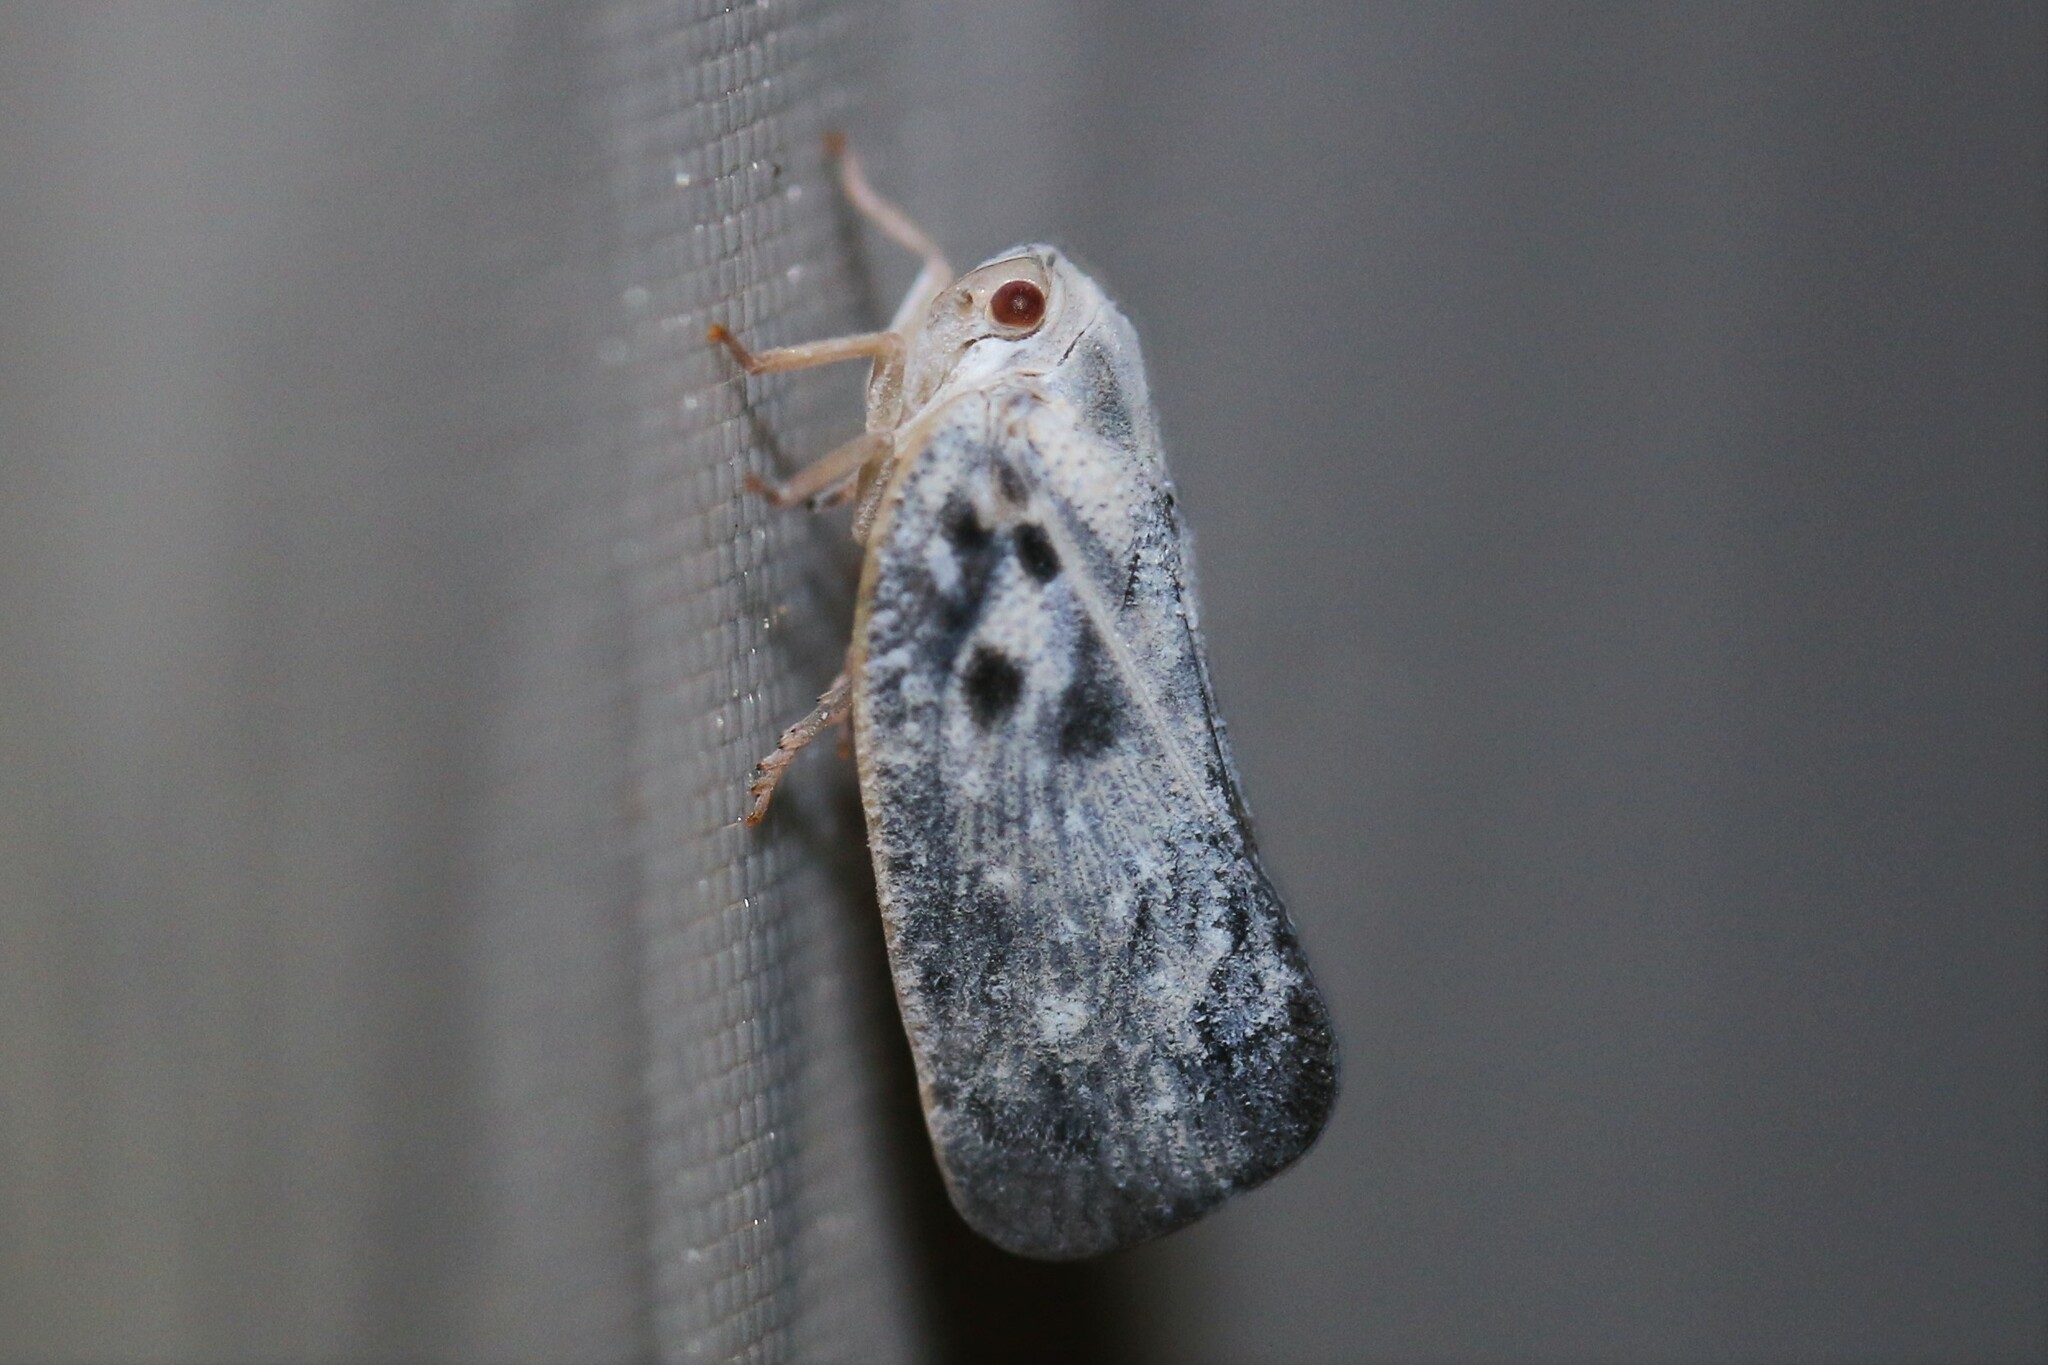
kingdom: Animalia
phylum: Arthropoda
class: Insecta
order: Hemiptera
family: Flatidae
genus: Metcalfa
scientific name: Metcalfa pruinosa
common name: Citrus flatid planthopper
